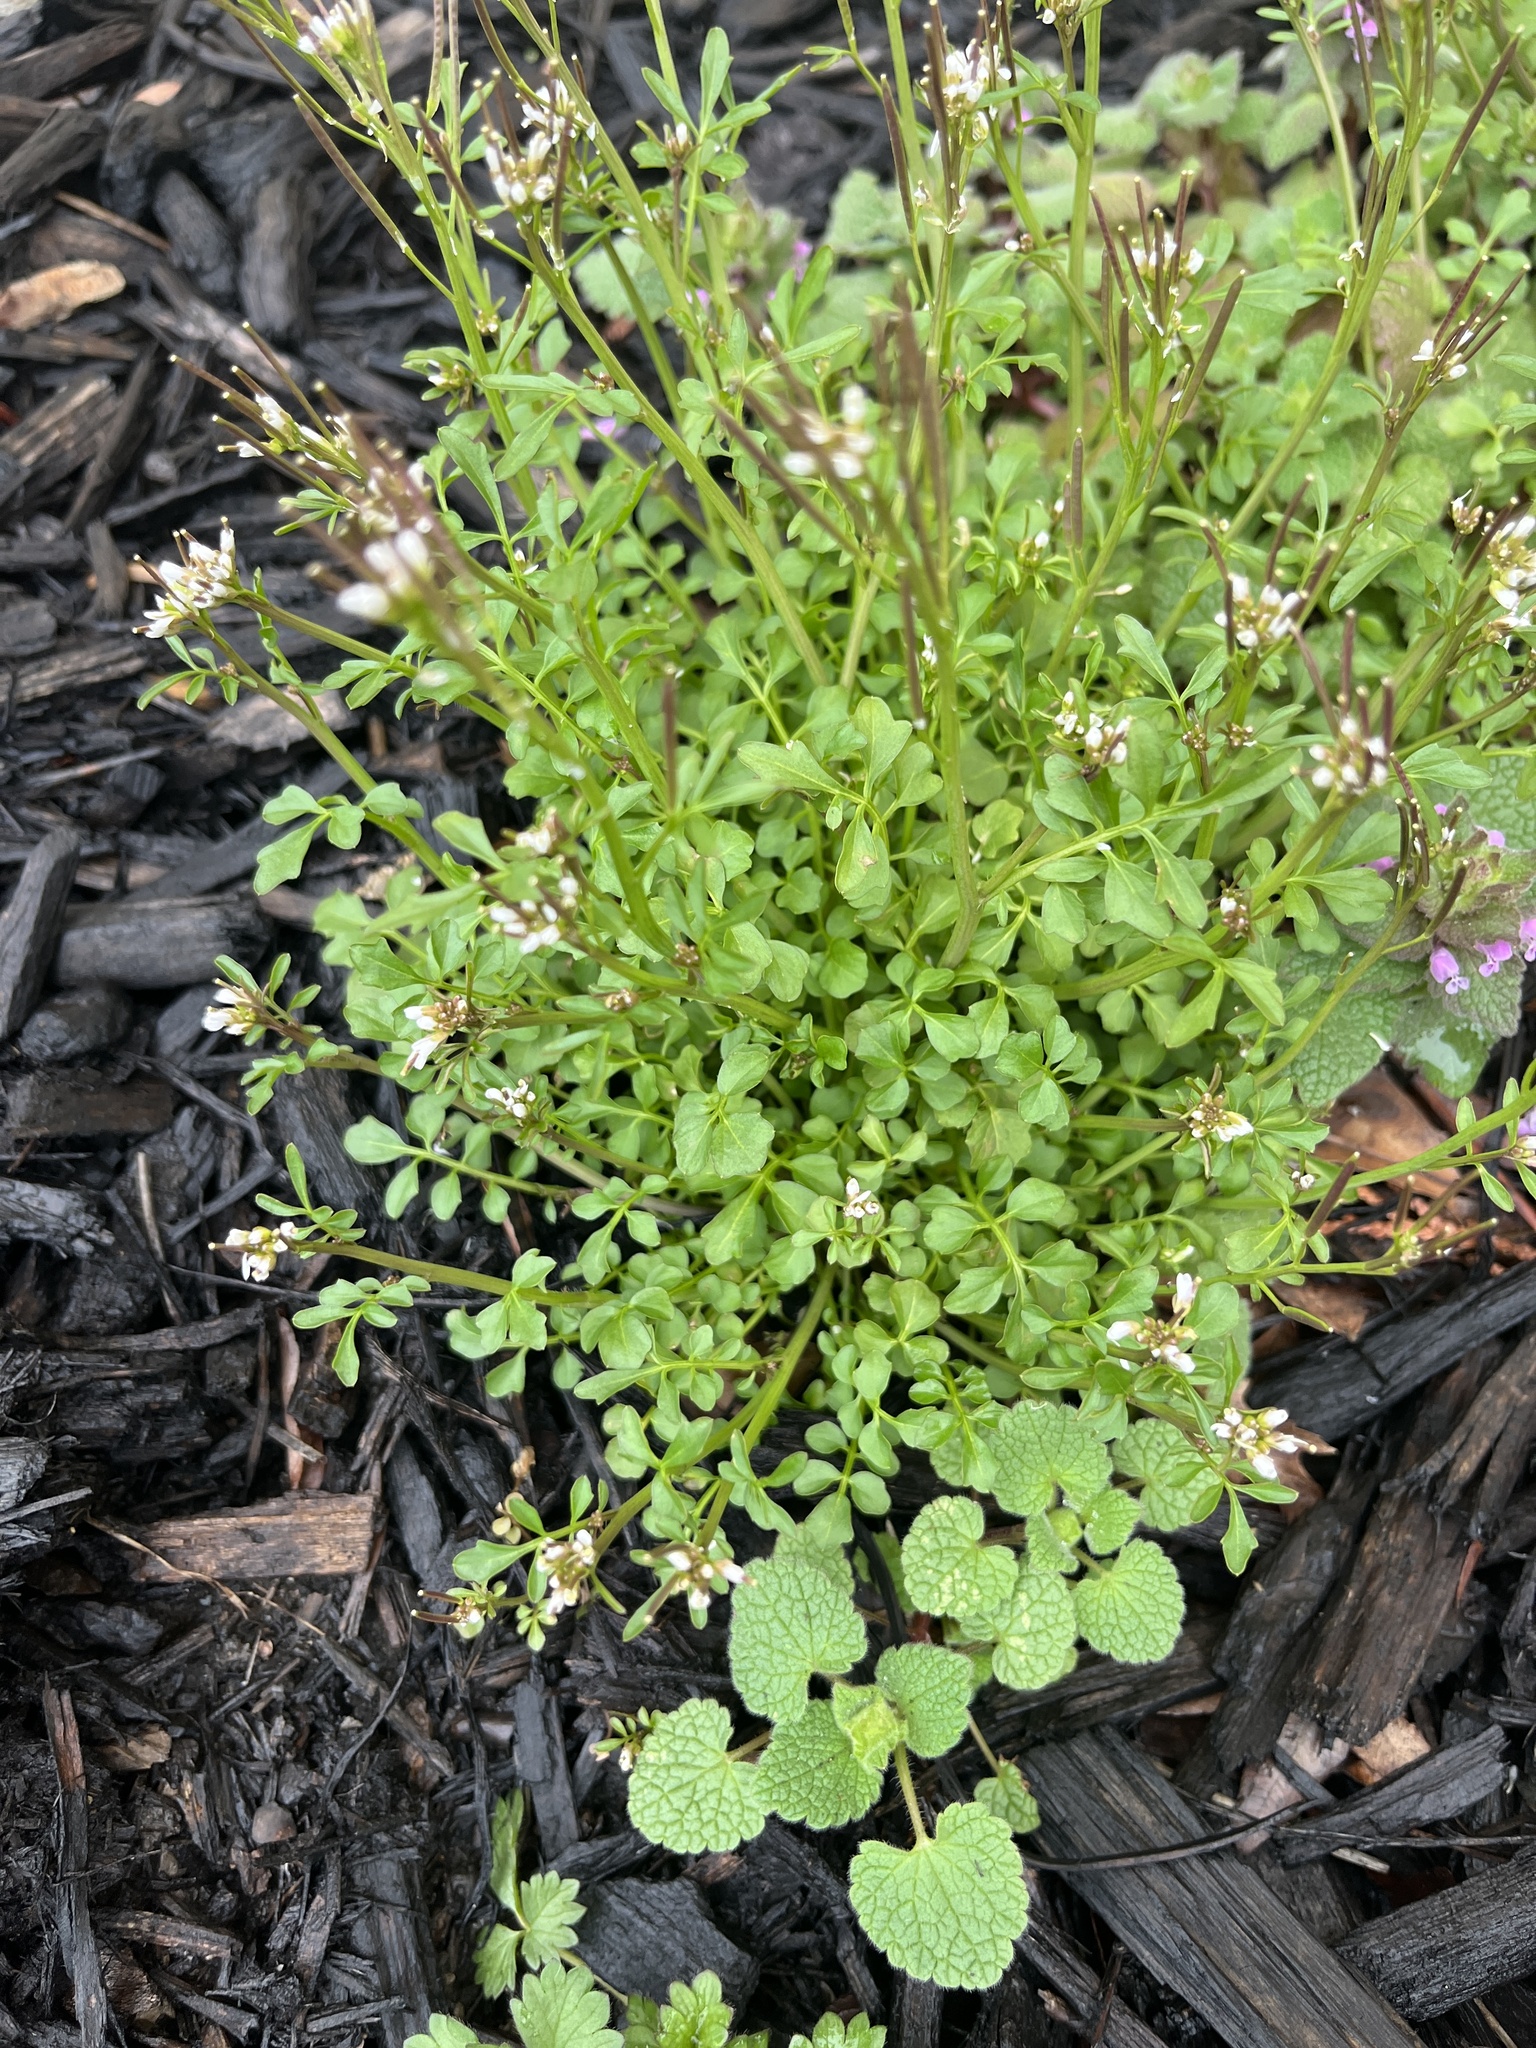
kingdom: Plantae
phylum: Tracheophyta
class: Magnoliopsida
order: Brassicales
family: Brassicaceae
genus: Cardamine
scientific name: Cardamine hirsuta
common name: Hairy bittercress
